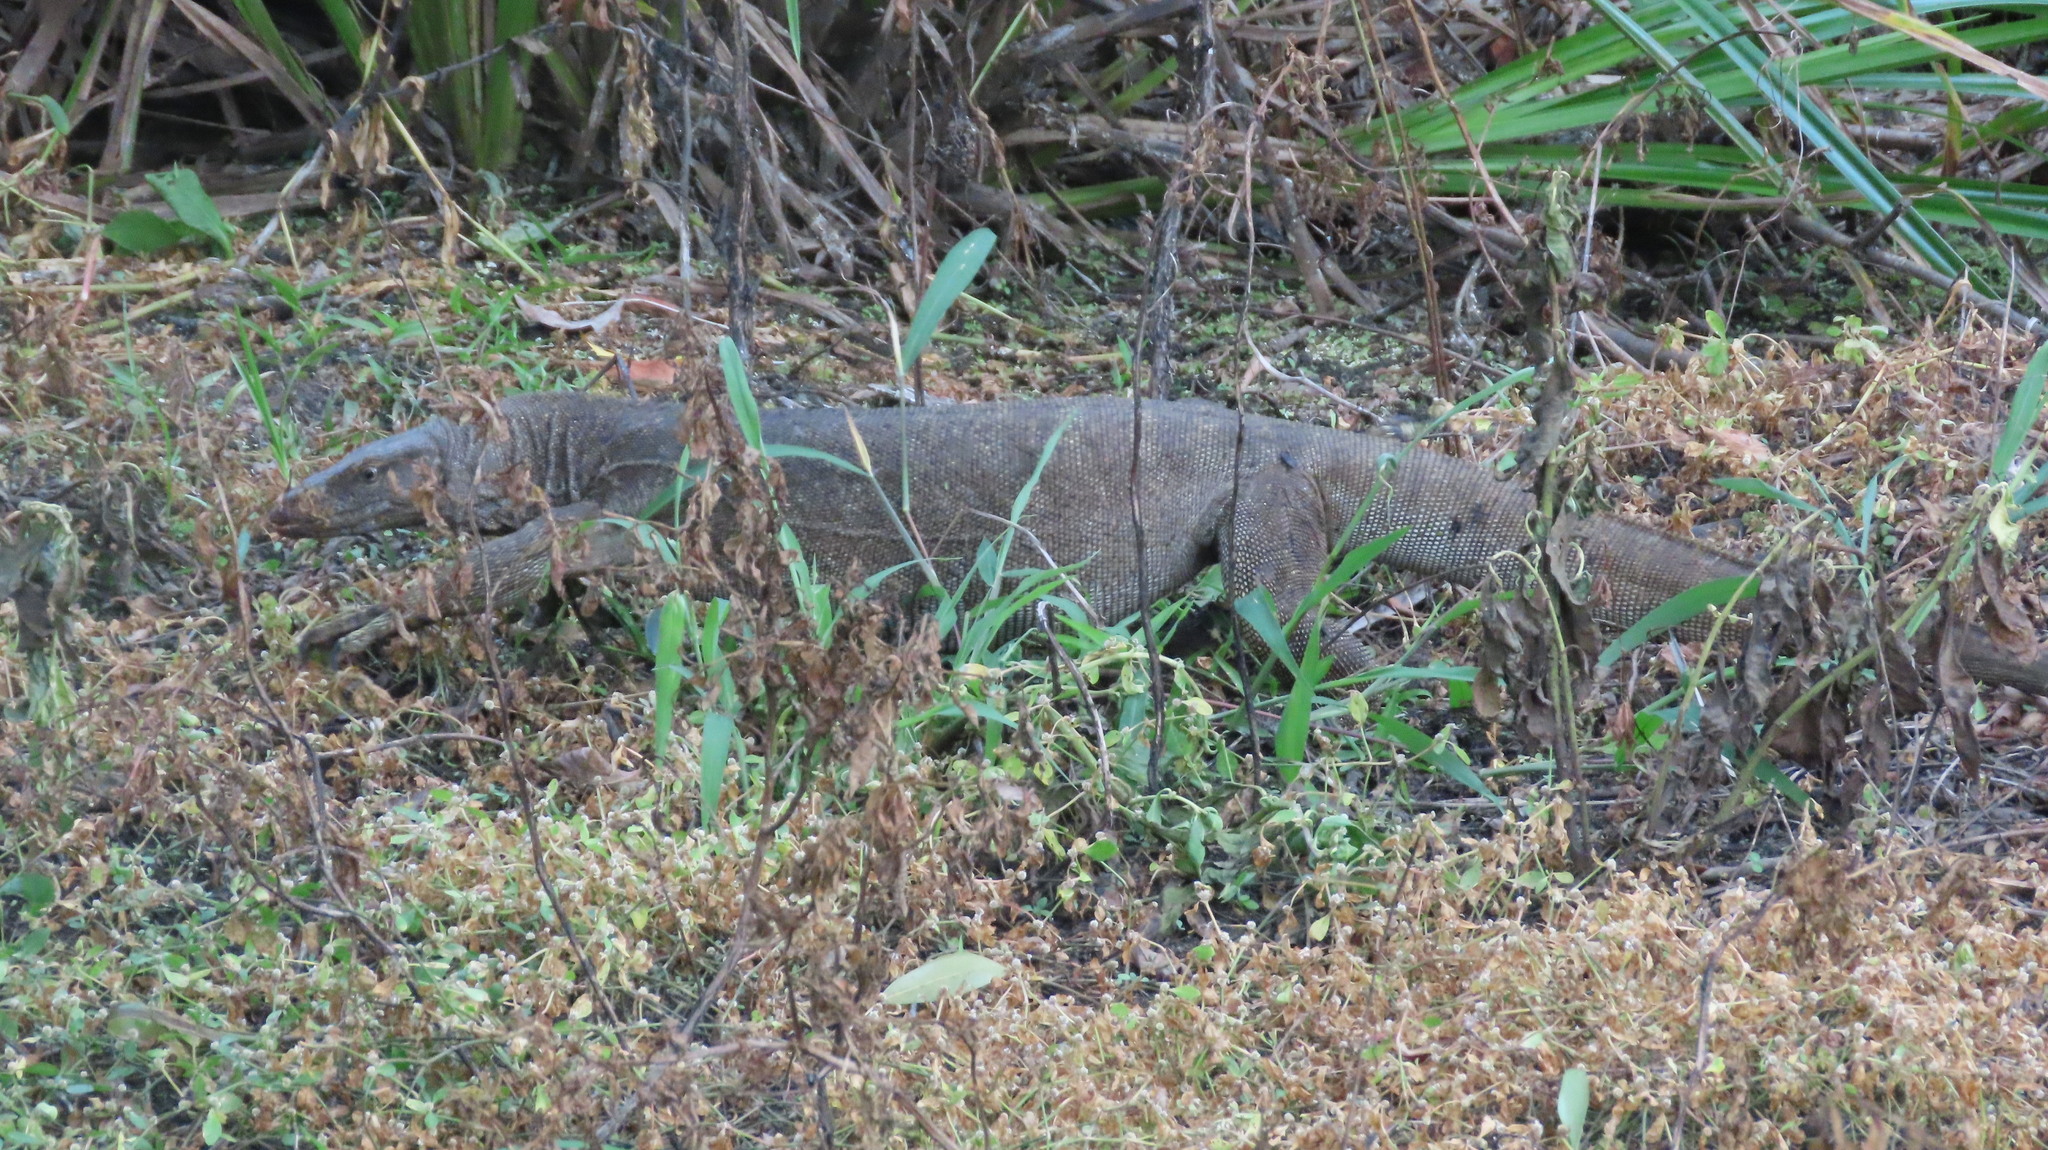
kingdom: Animalia
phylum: Chordata
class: Squamata
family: Varanidae
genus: Varanus
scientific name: Varanus bengalensis
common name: Bengal monitor
